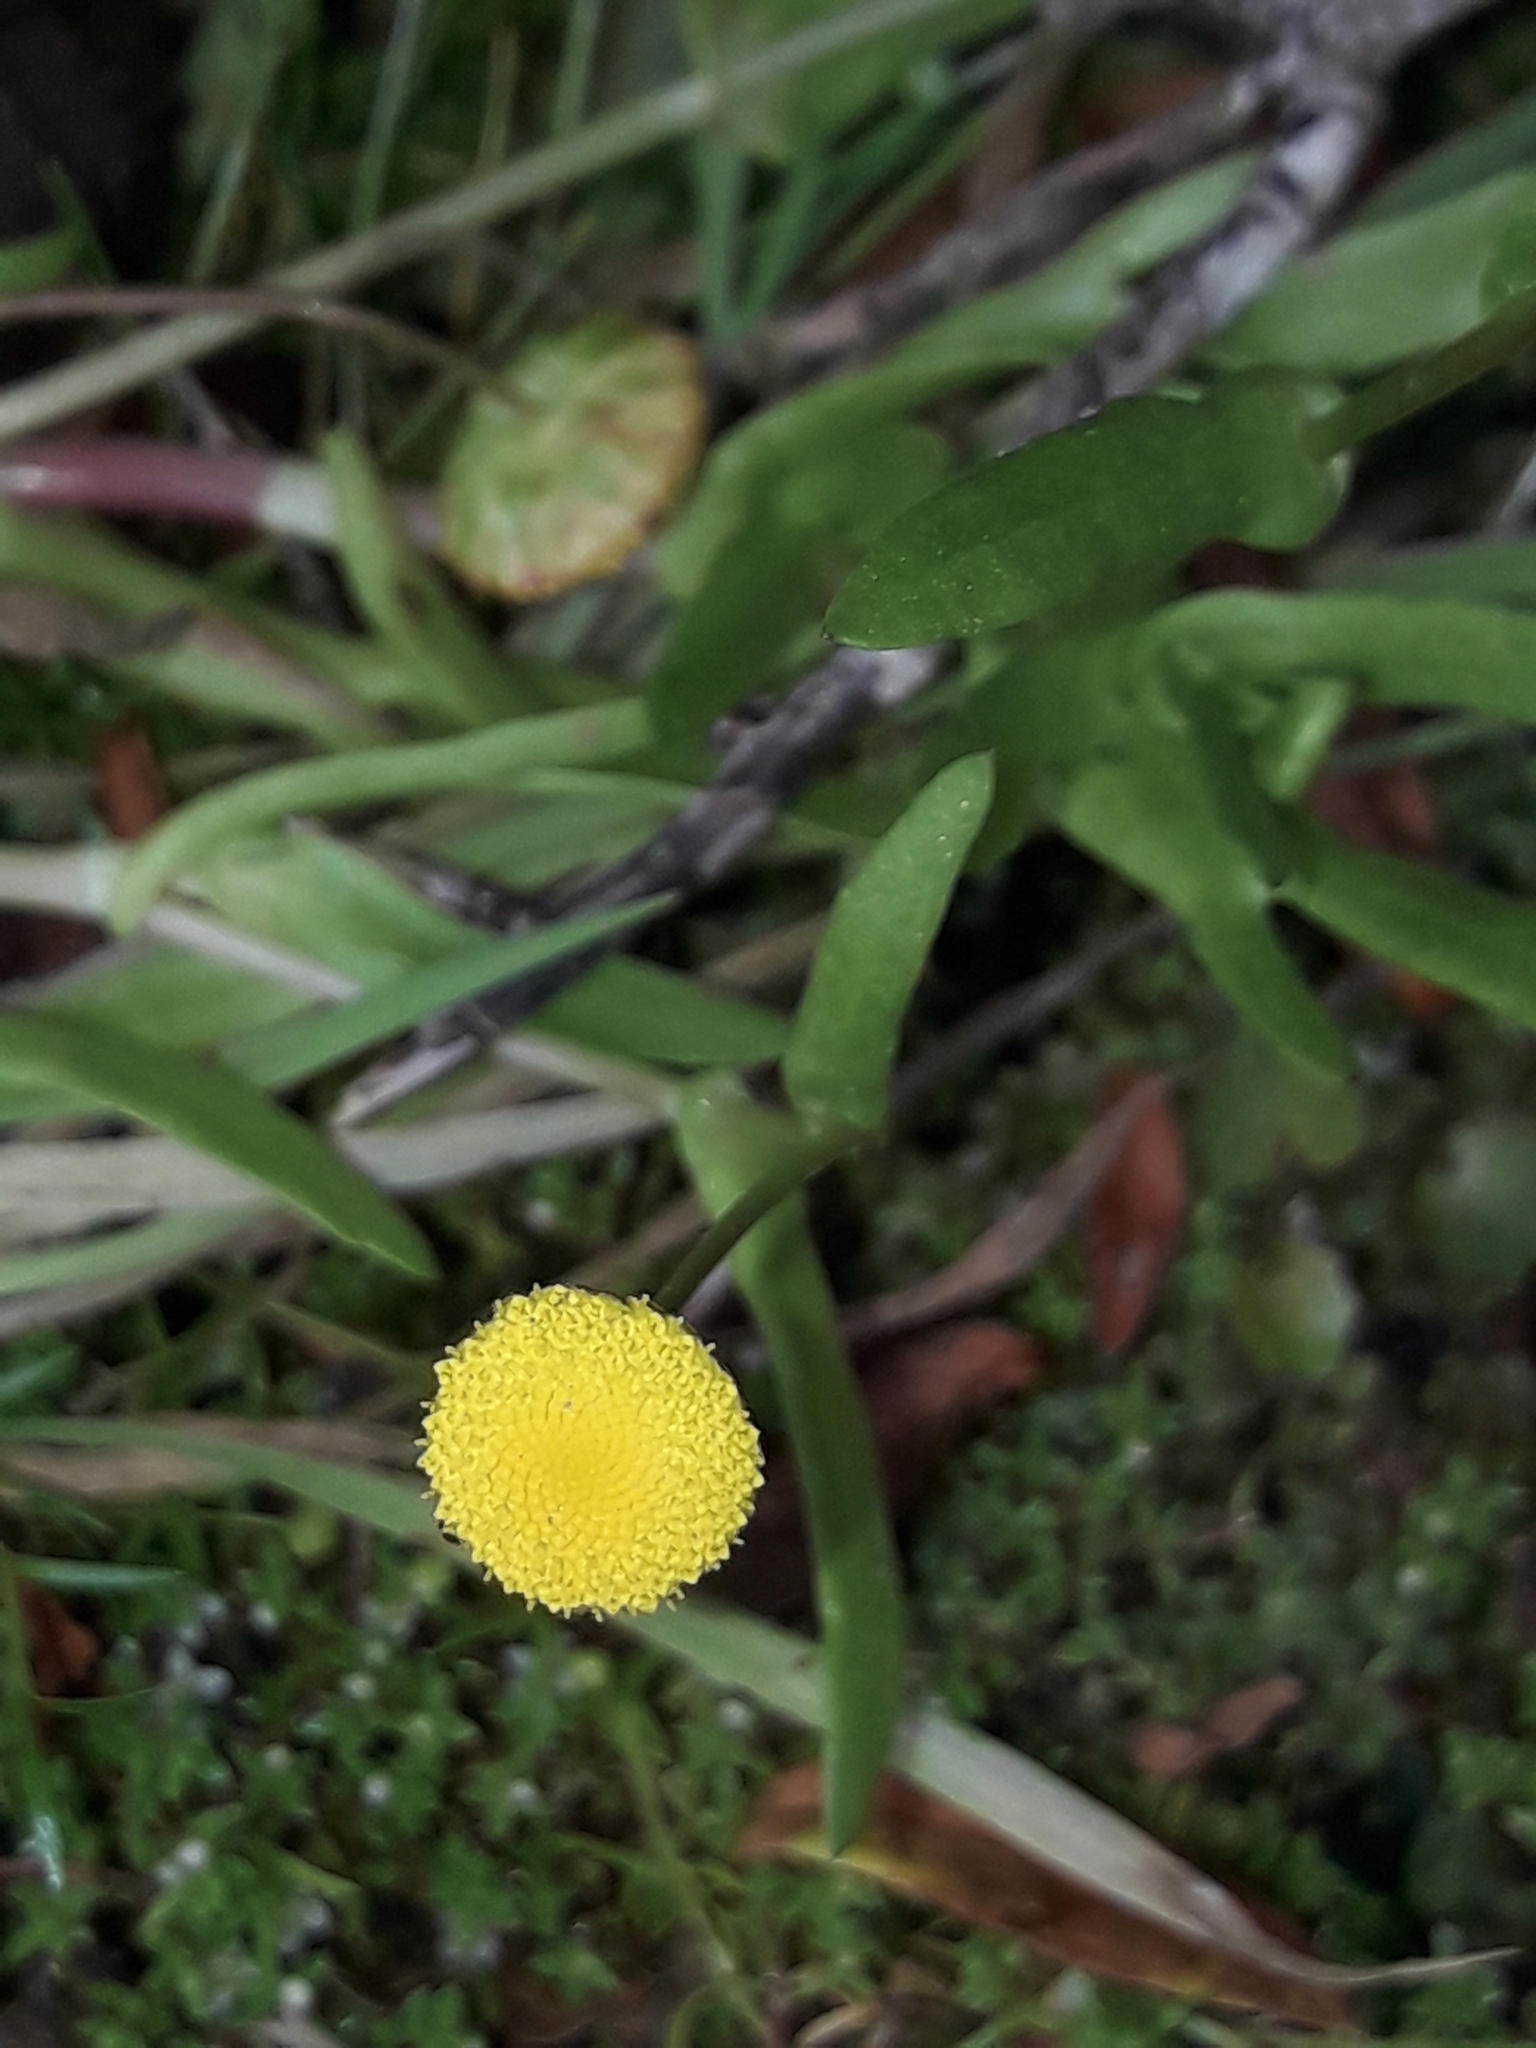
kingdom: Plantae
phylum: Tracheophyta
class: Magnoliopsida
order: Asterales
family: Asteraceae
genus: Cotula
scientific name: Cotula coronopifolia
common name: Buttonweed
